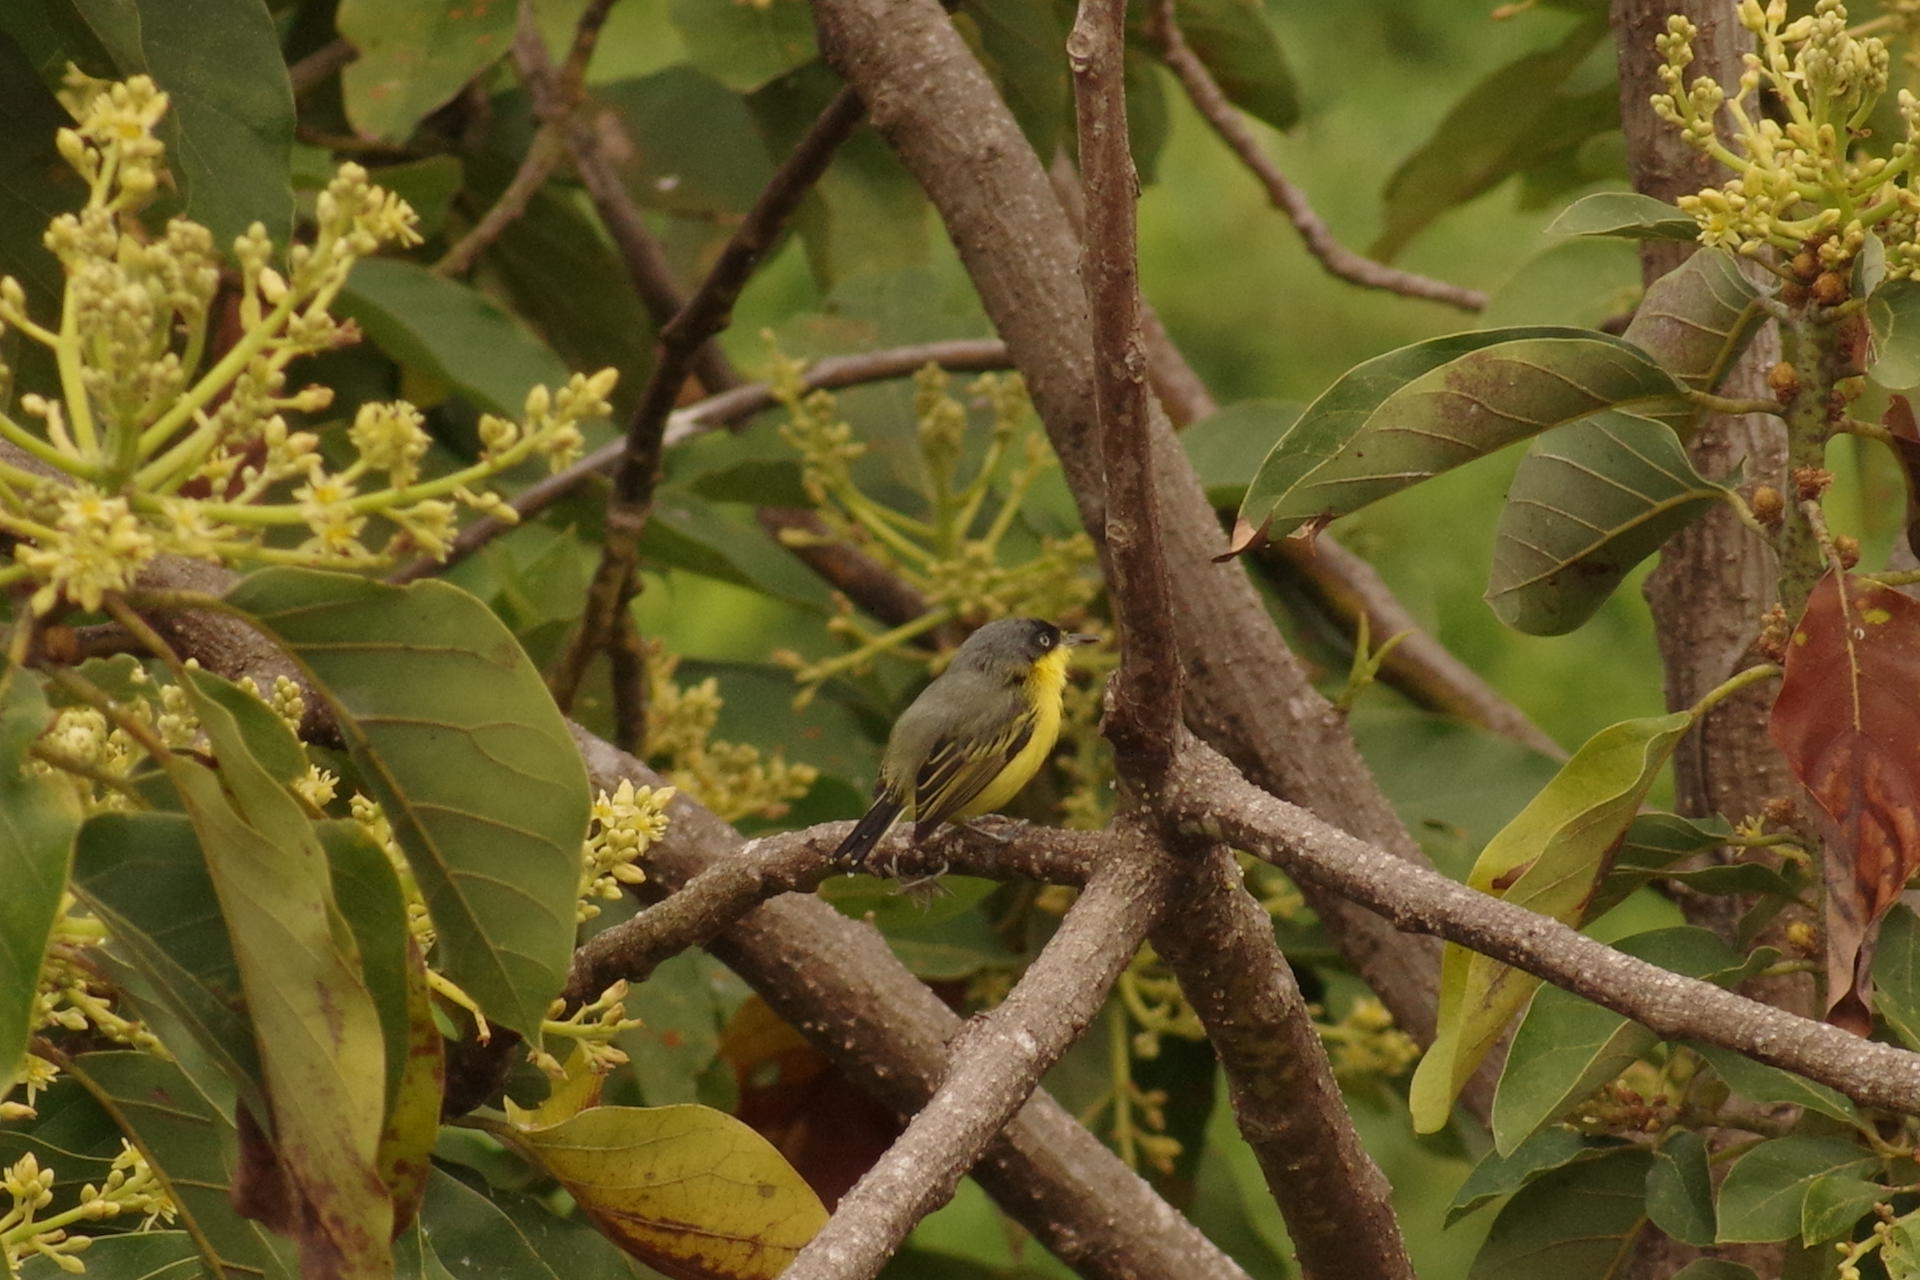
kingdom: Animalia
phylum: Chordata
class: Aves
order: Passeriformes
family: Tyrannidae
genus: Todirostrum
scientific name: Todirostrum cinereum
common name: Common tody-flycatcher
